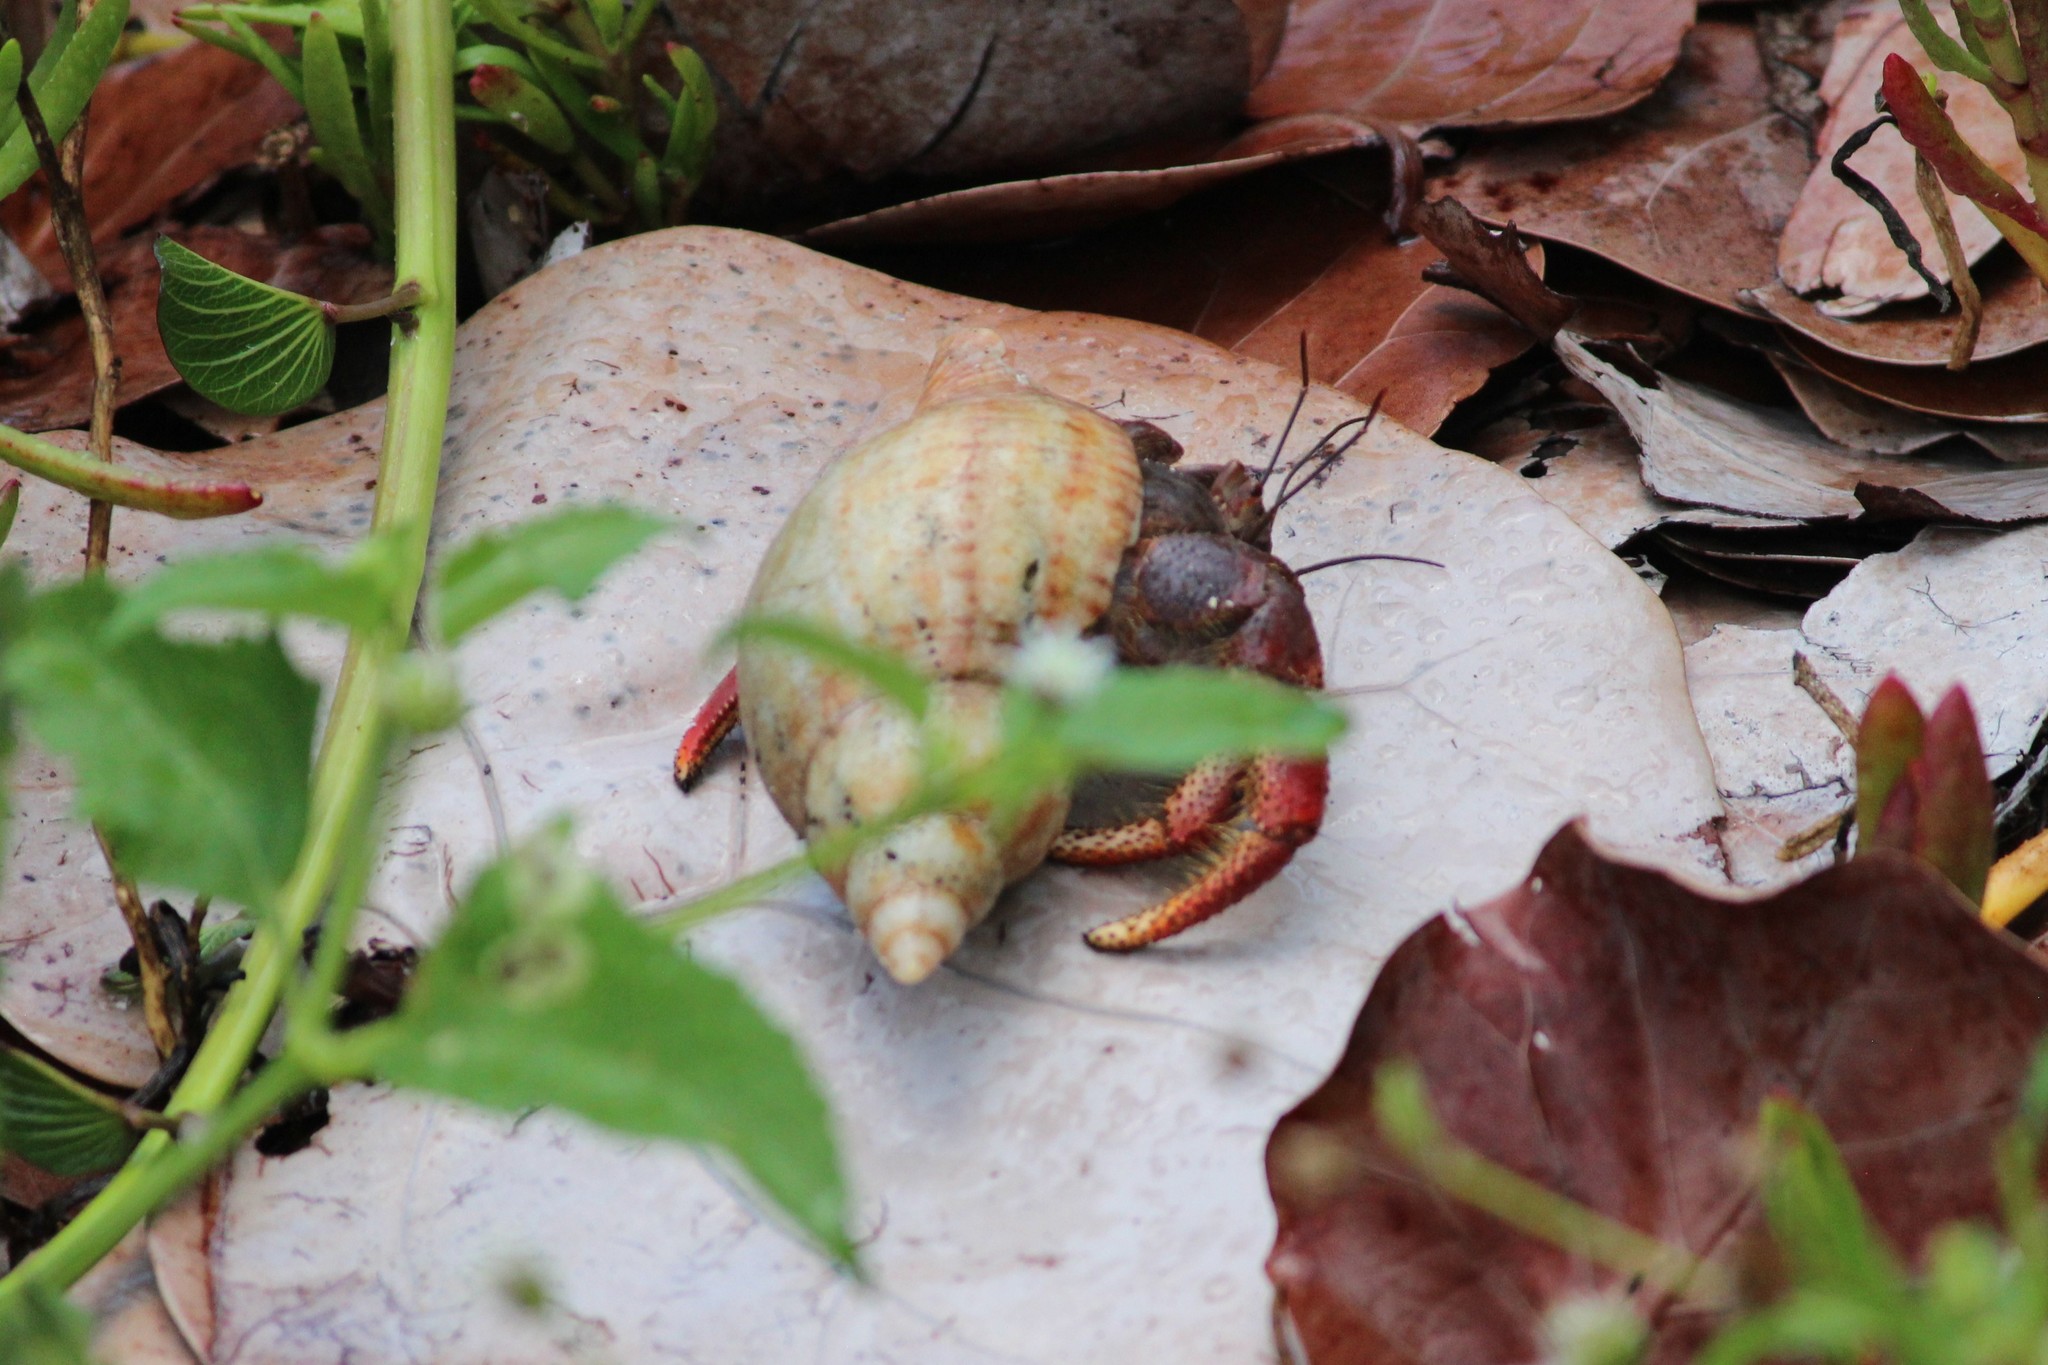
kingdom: Animalia
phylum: Arthropoda
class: Malacostraca
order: Decapoda
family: Coenobitidae
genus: Coenobita
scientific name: Coenobita clypeatus
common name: Caribbean hermit crab
